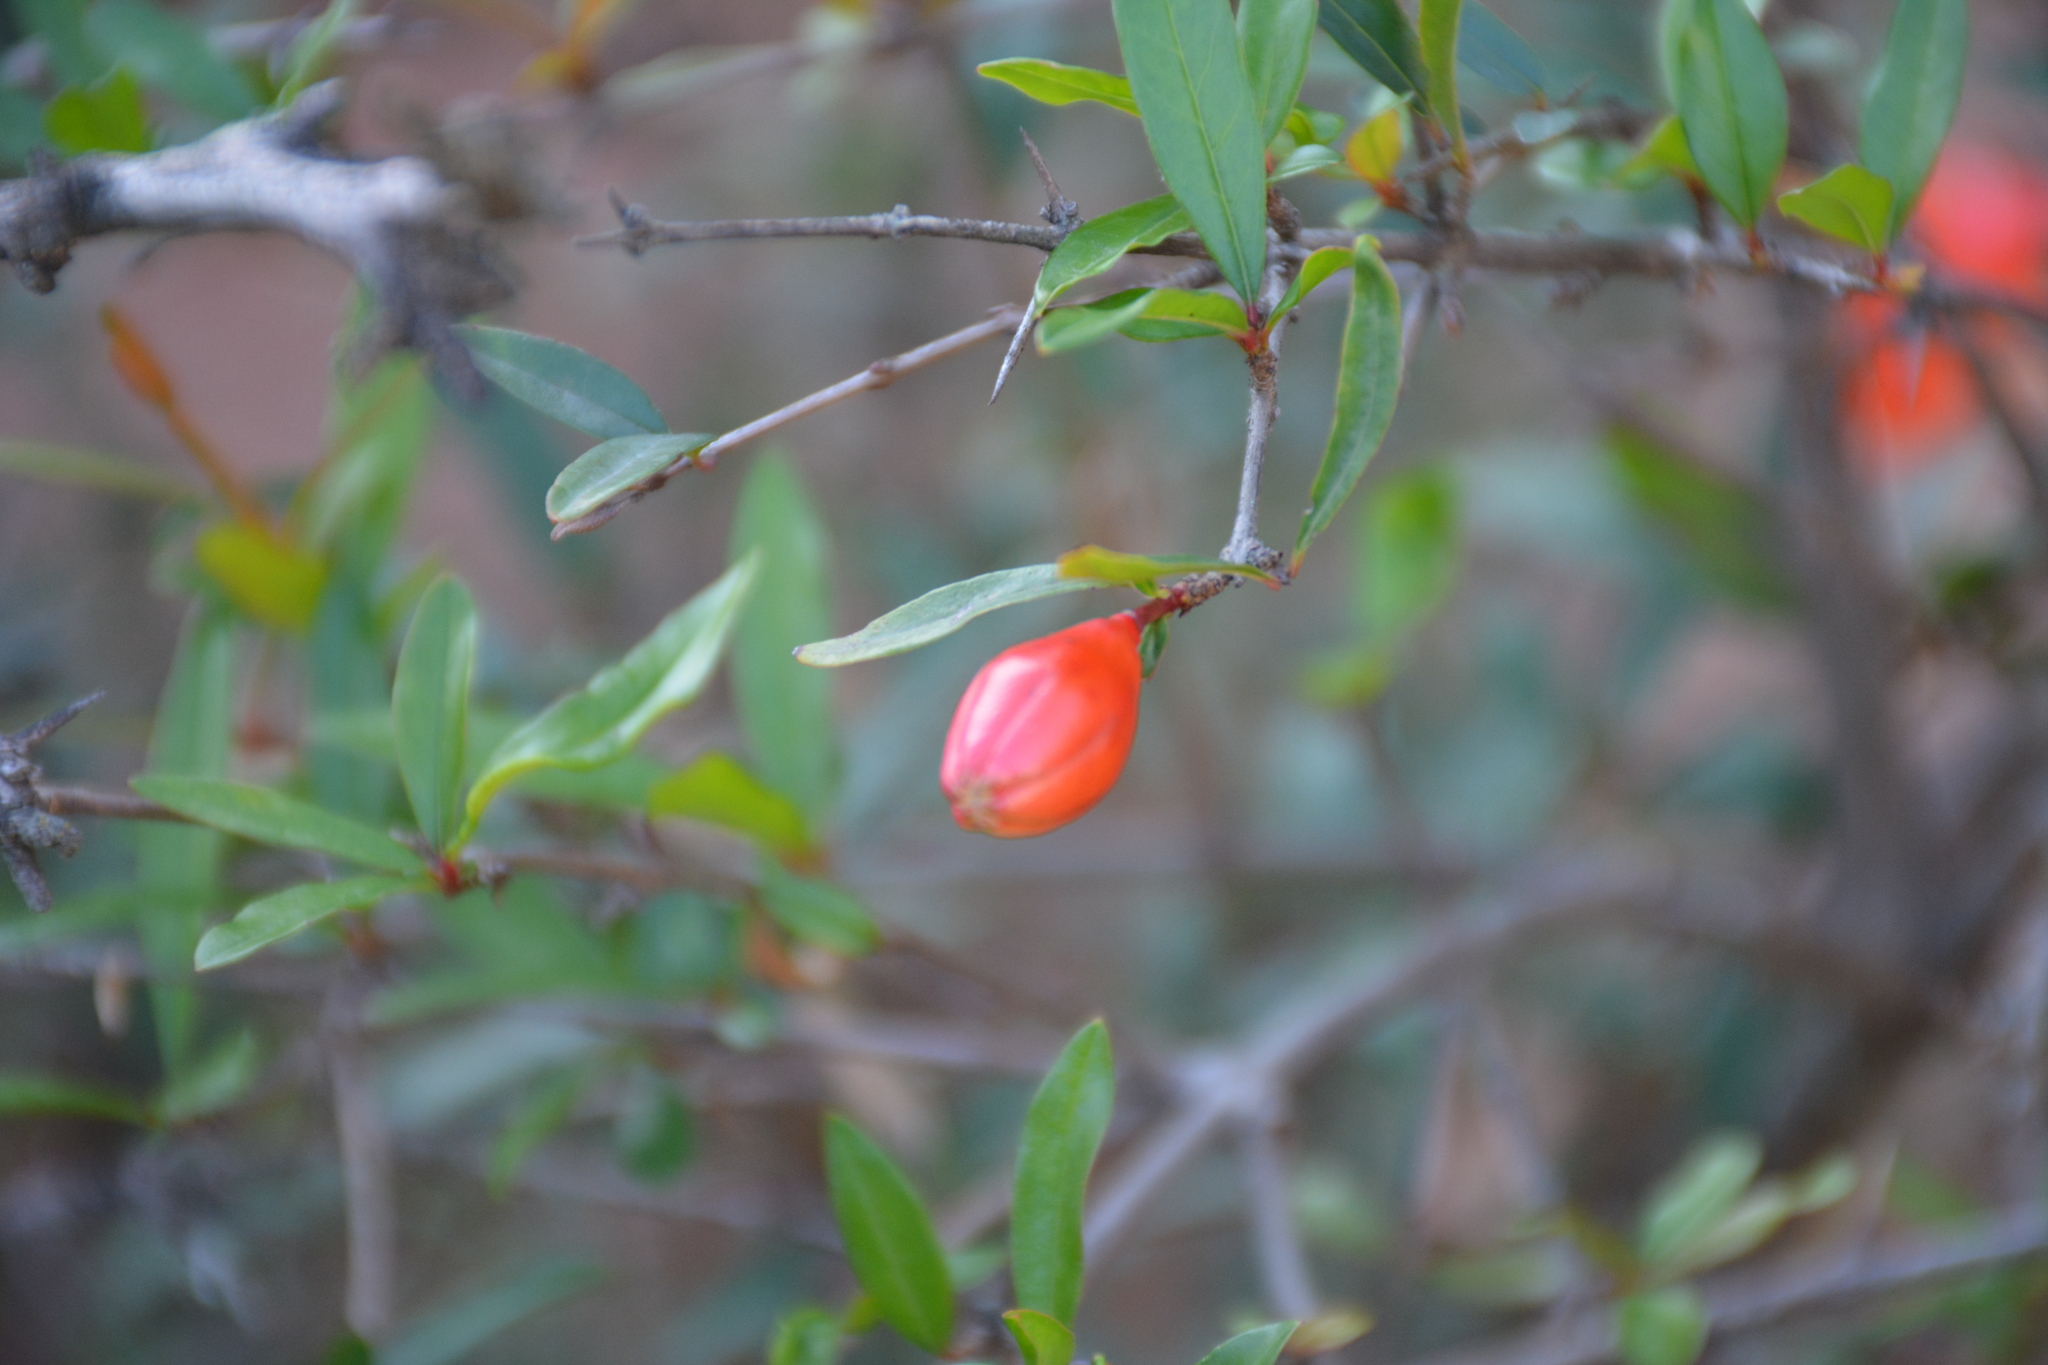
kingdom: Plantae
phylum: Tracheophyta
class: Magnoliopsida
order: Myrtales
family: Lythraceae
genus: Punica
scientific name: Punica granatum
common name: Pomegranate
